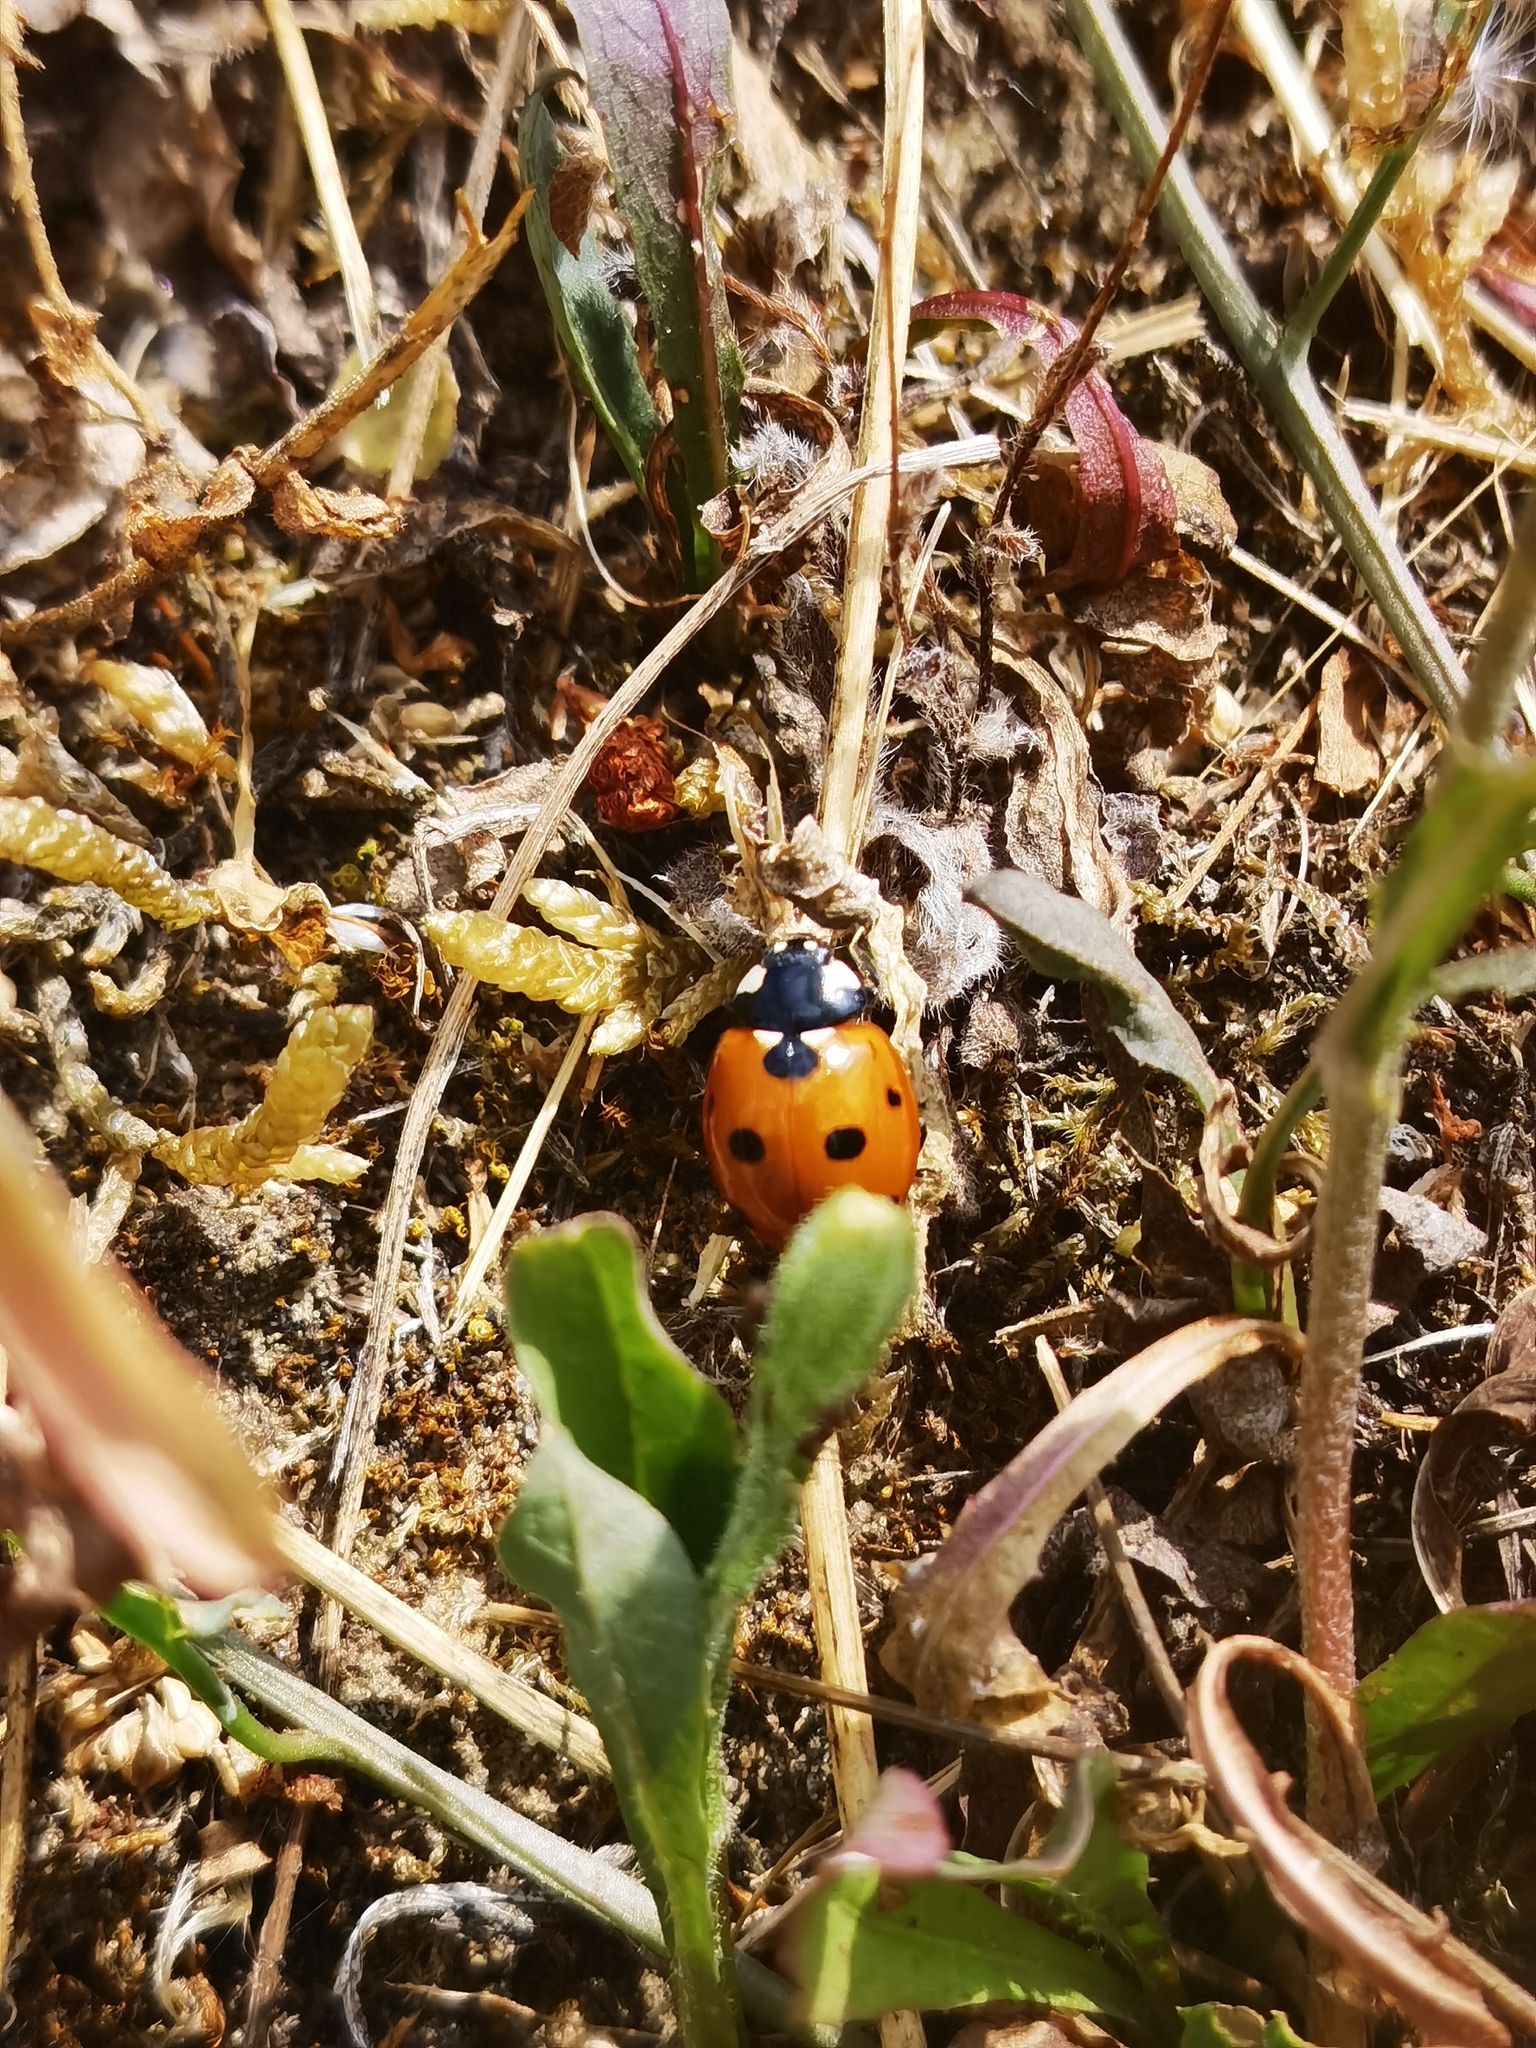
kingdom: Animalia
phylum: Arthropoda
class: Insecta
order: Coleoptera
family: Coccinellidae
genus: Coccinella
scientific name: Coccinella septempunctata
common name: Sevenspotted lady beetle
